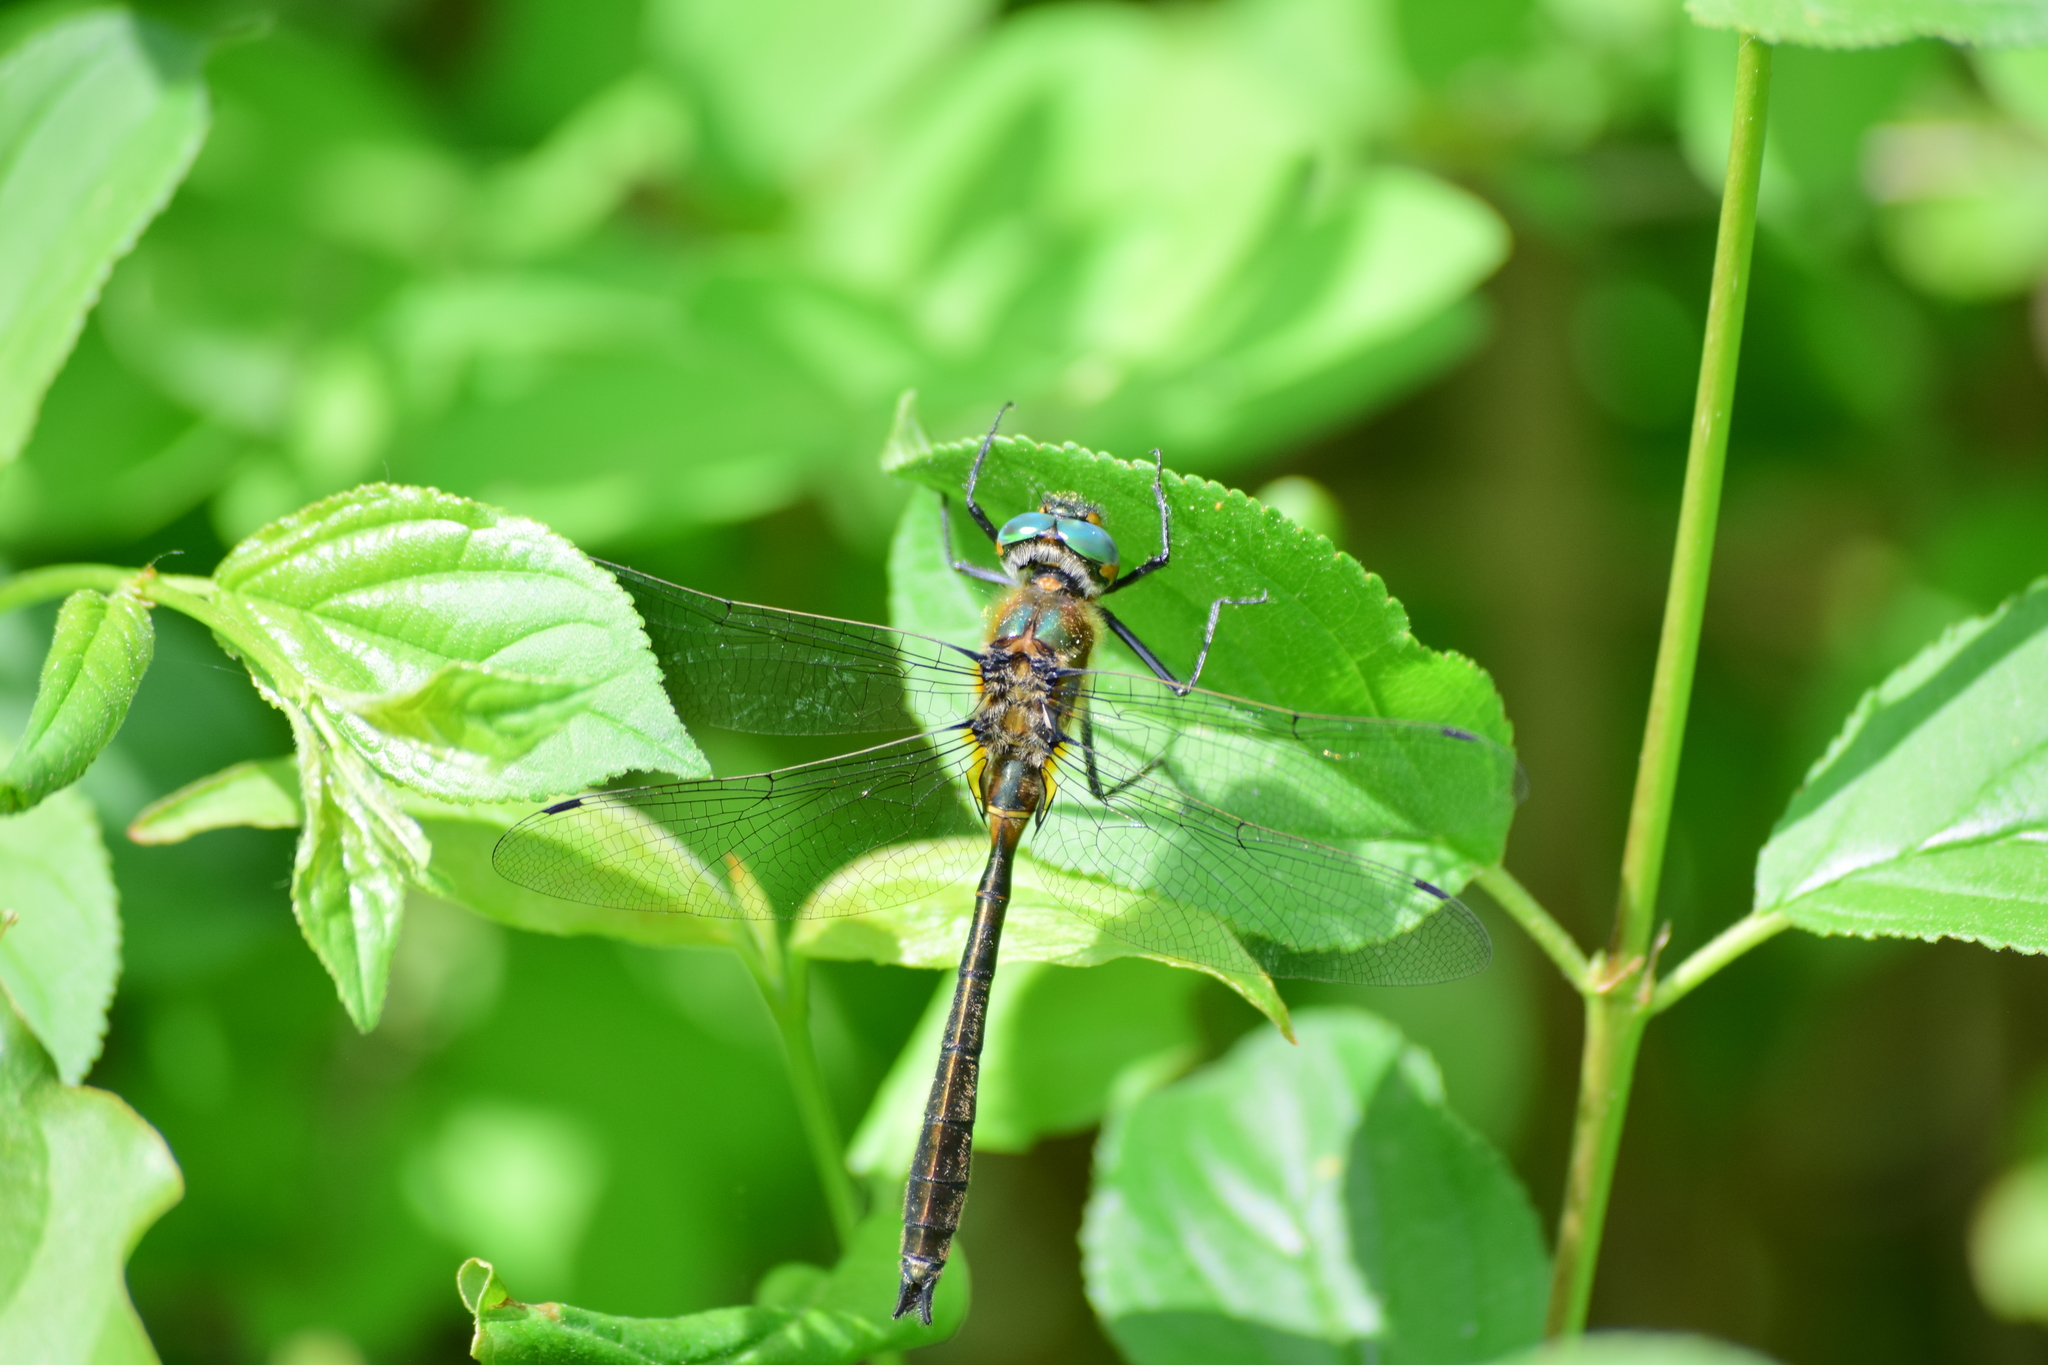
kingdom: Animalia
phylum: Arthropoda
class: Insecta
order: Odonata
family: Corduliidae
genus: Cordulia
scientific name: Cordulia shurtleffii
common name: American emerald
